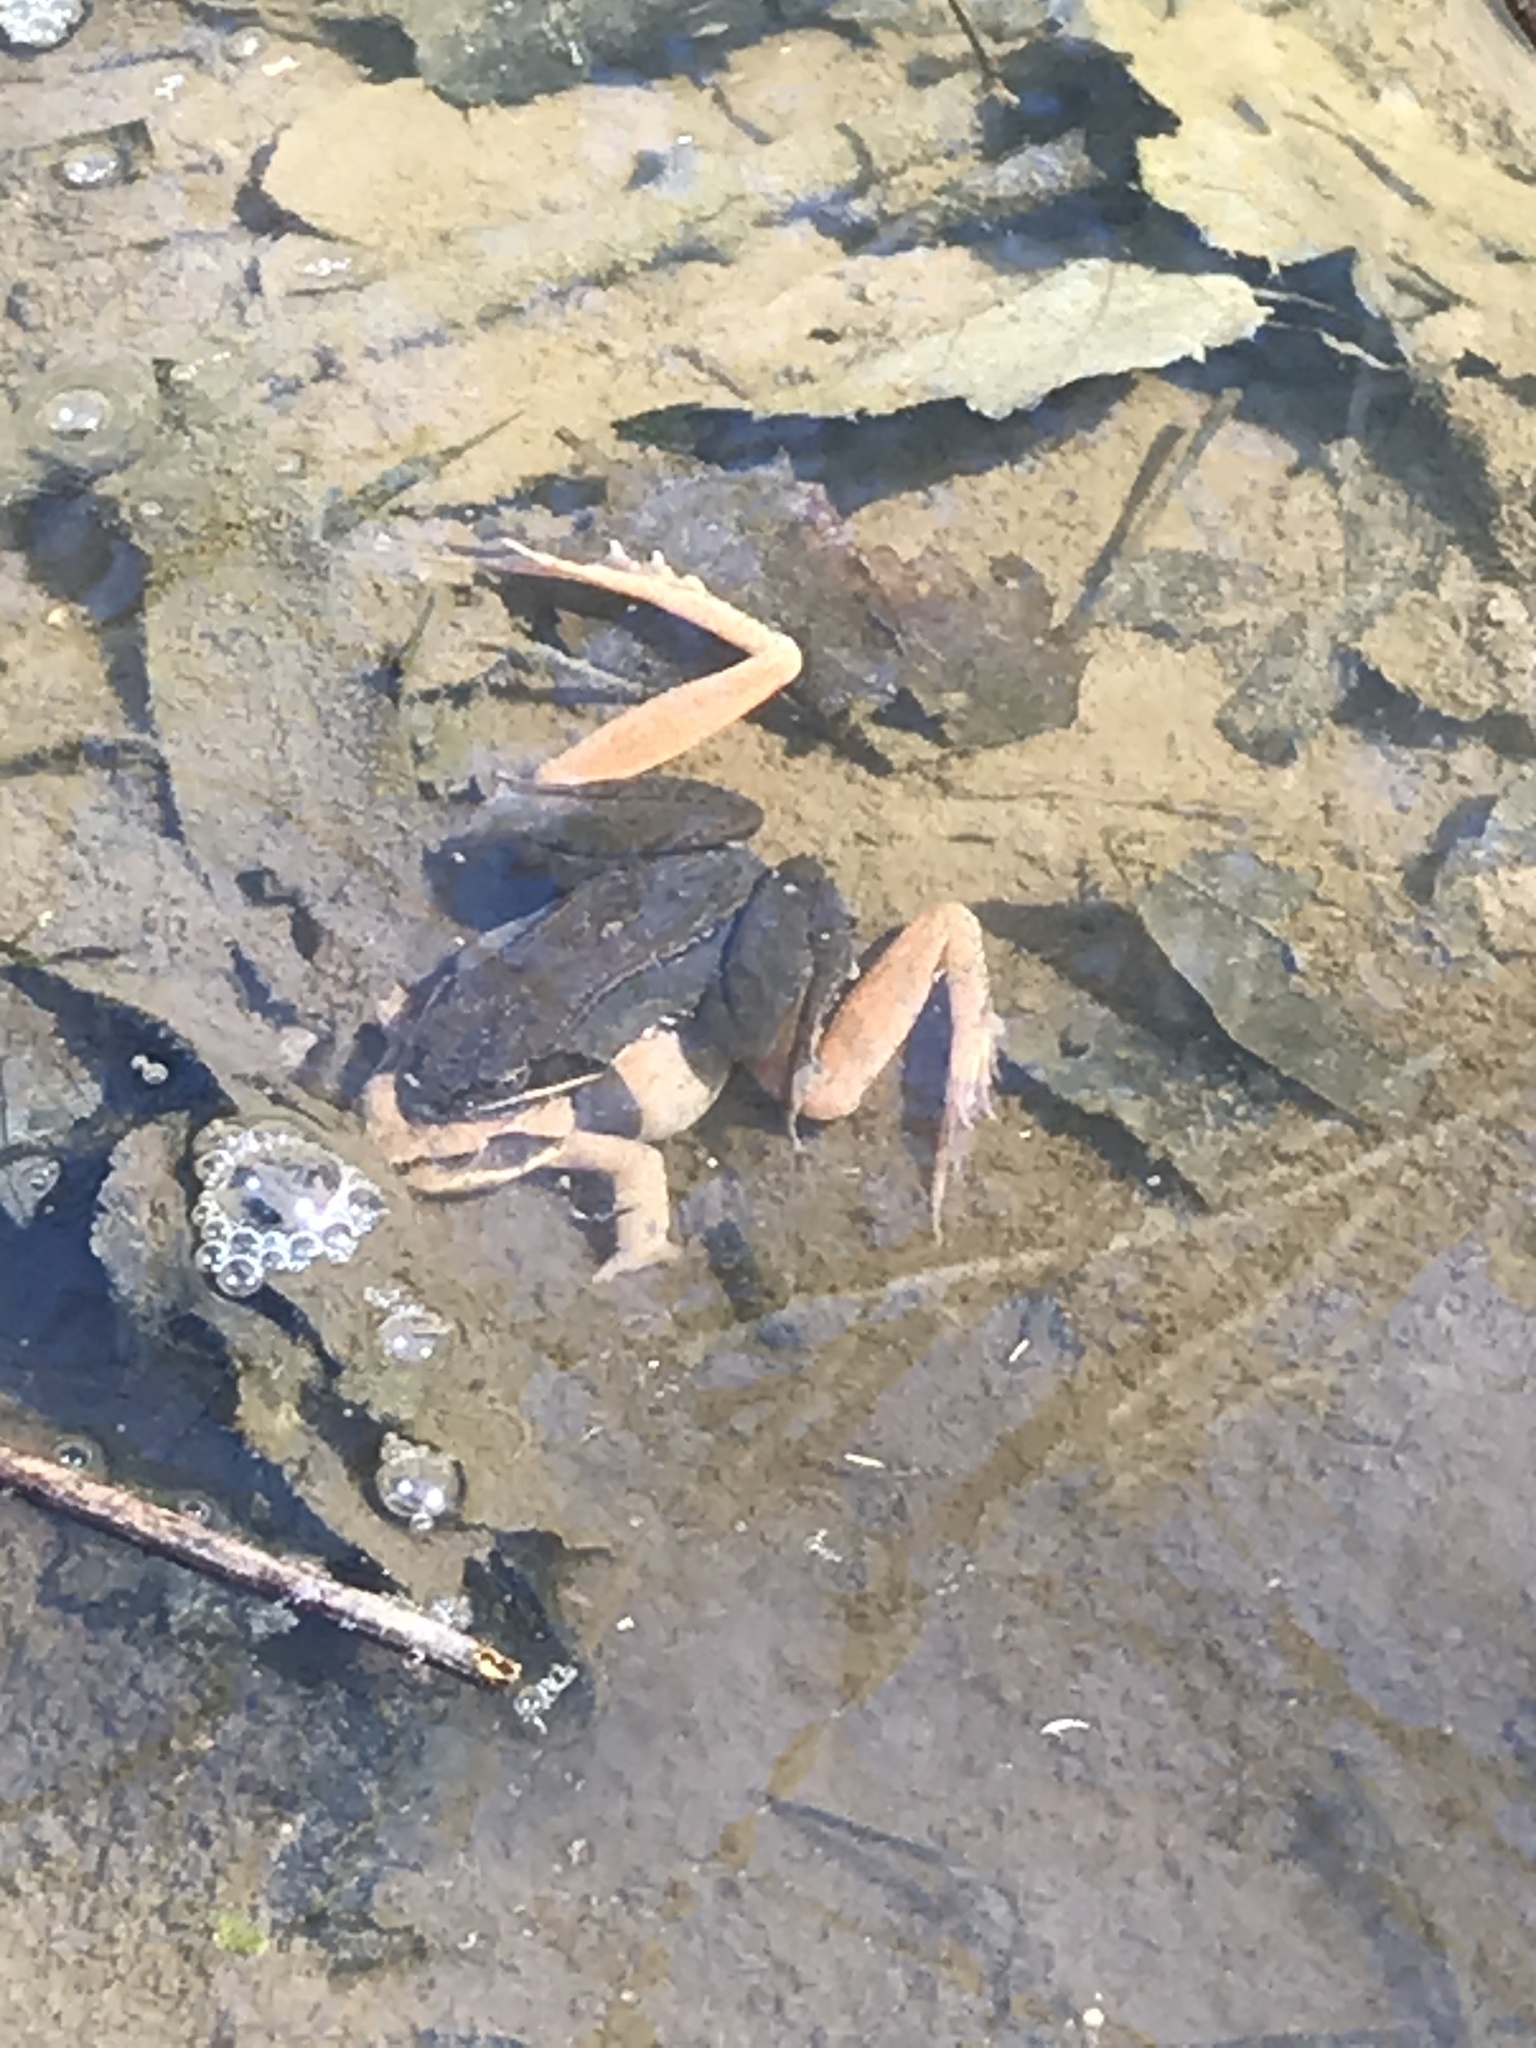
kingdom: Animalia
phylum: Chordata
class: Amphibia
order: Anura
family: Ranidae
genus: Lithobates
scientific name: Lithobates sylvaticus
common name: Wood frog
